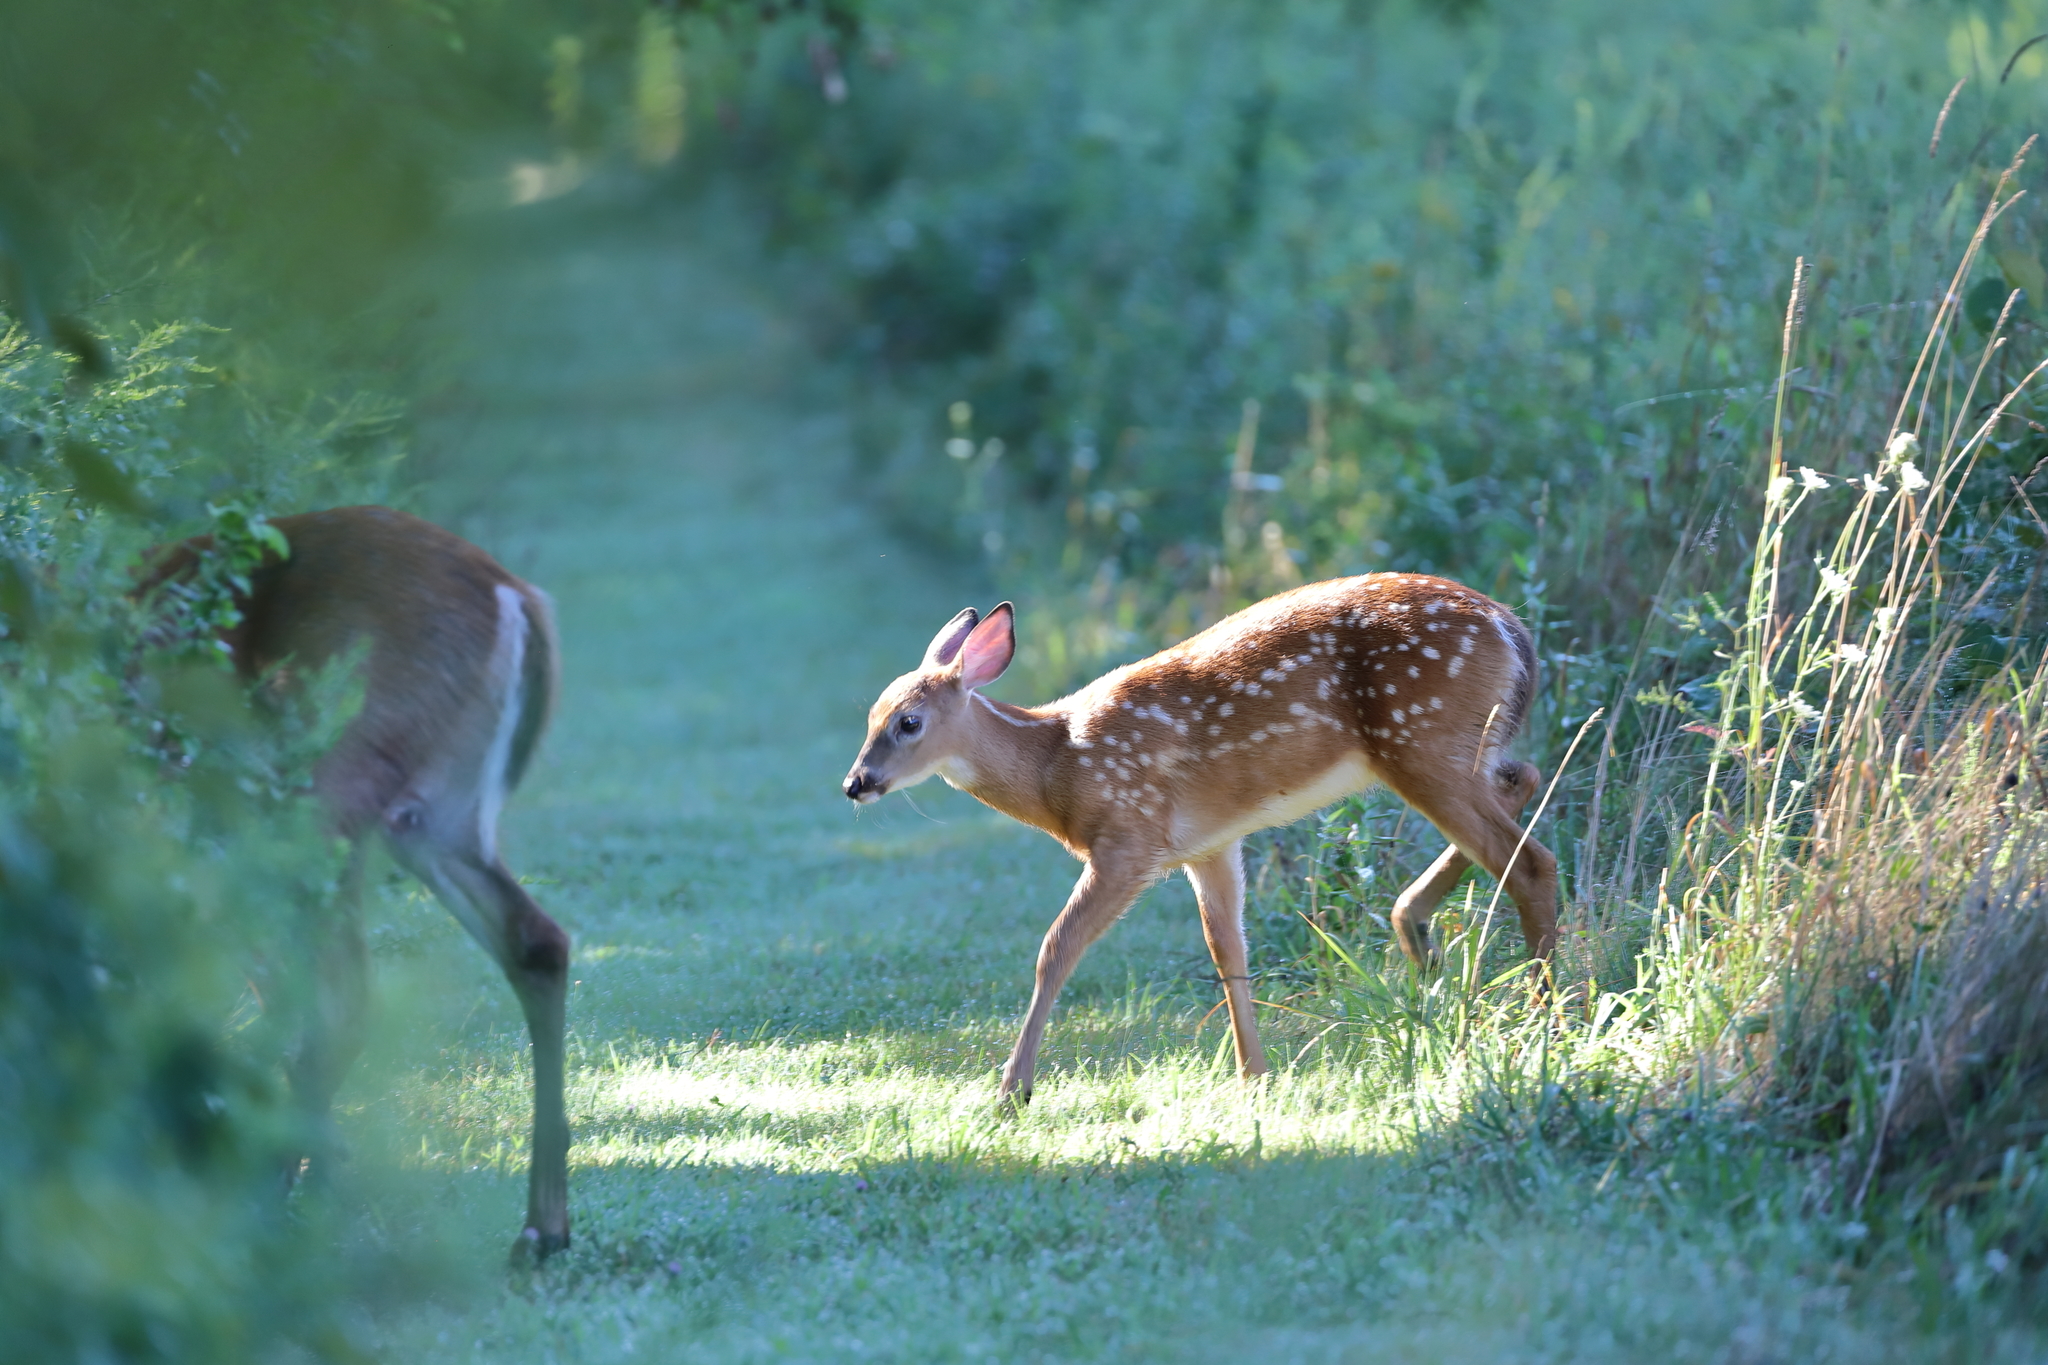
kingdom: Animalia
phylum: Chordata
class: Mammalia
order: Artiodactyla
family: Cervidae
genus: Odocoileus
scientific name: Odocoileus virginianus
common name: White-tailed deer
